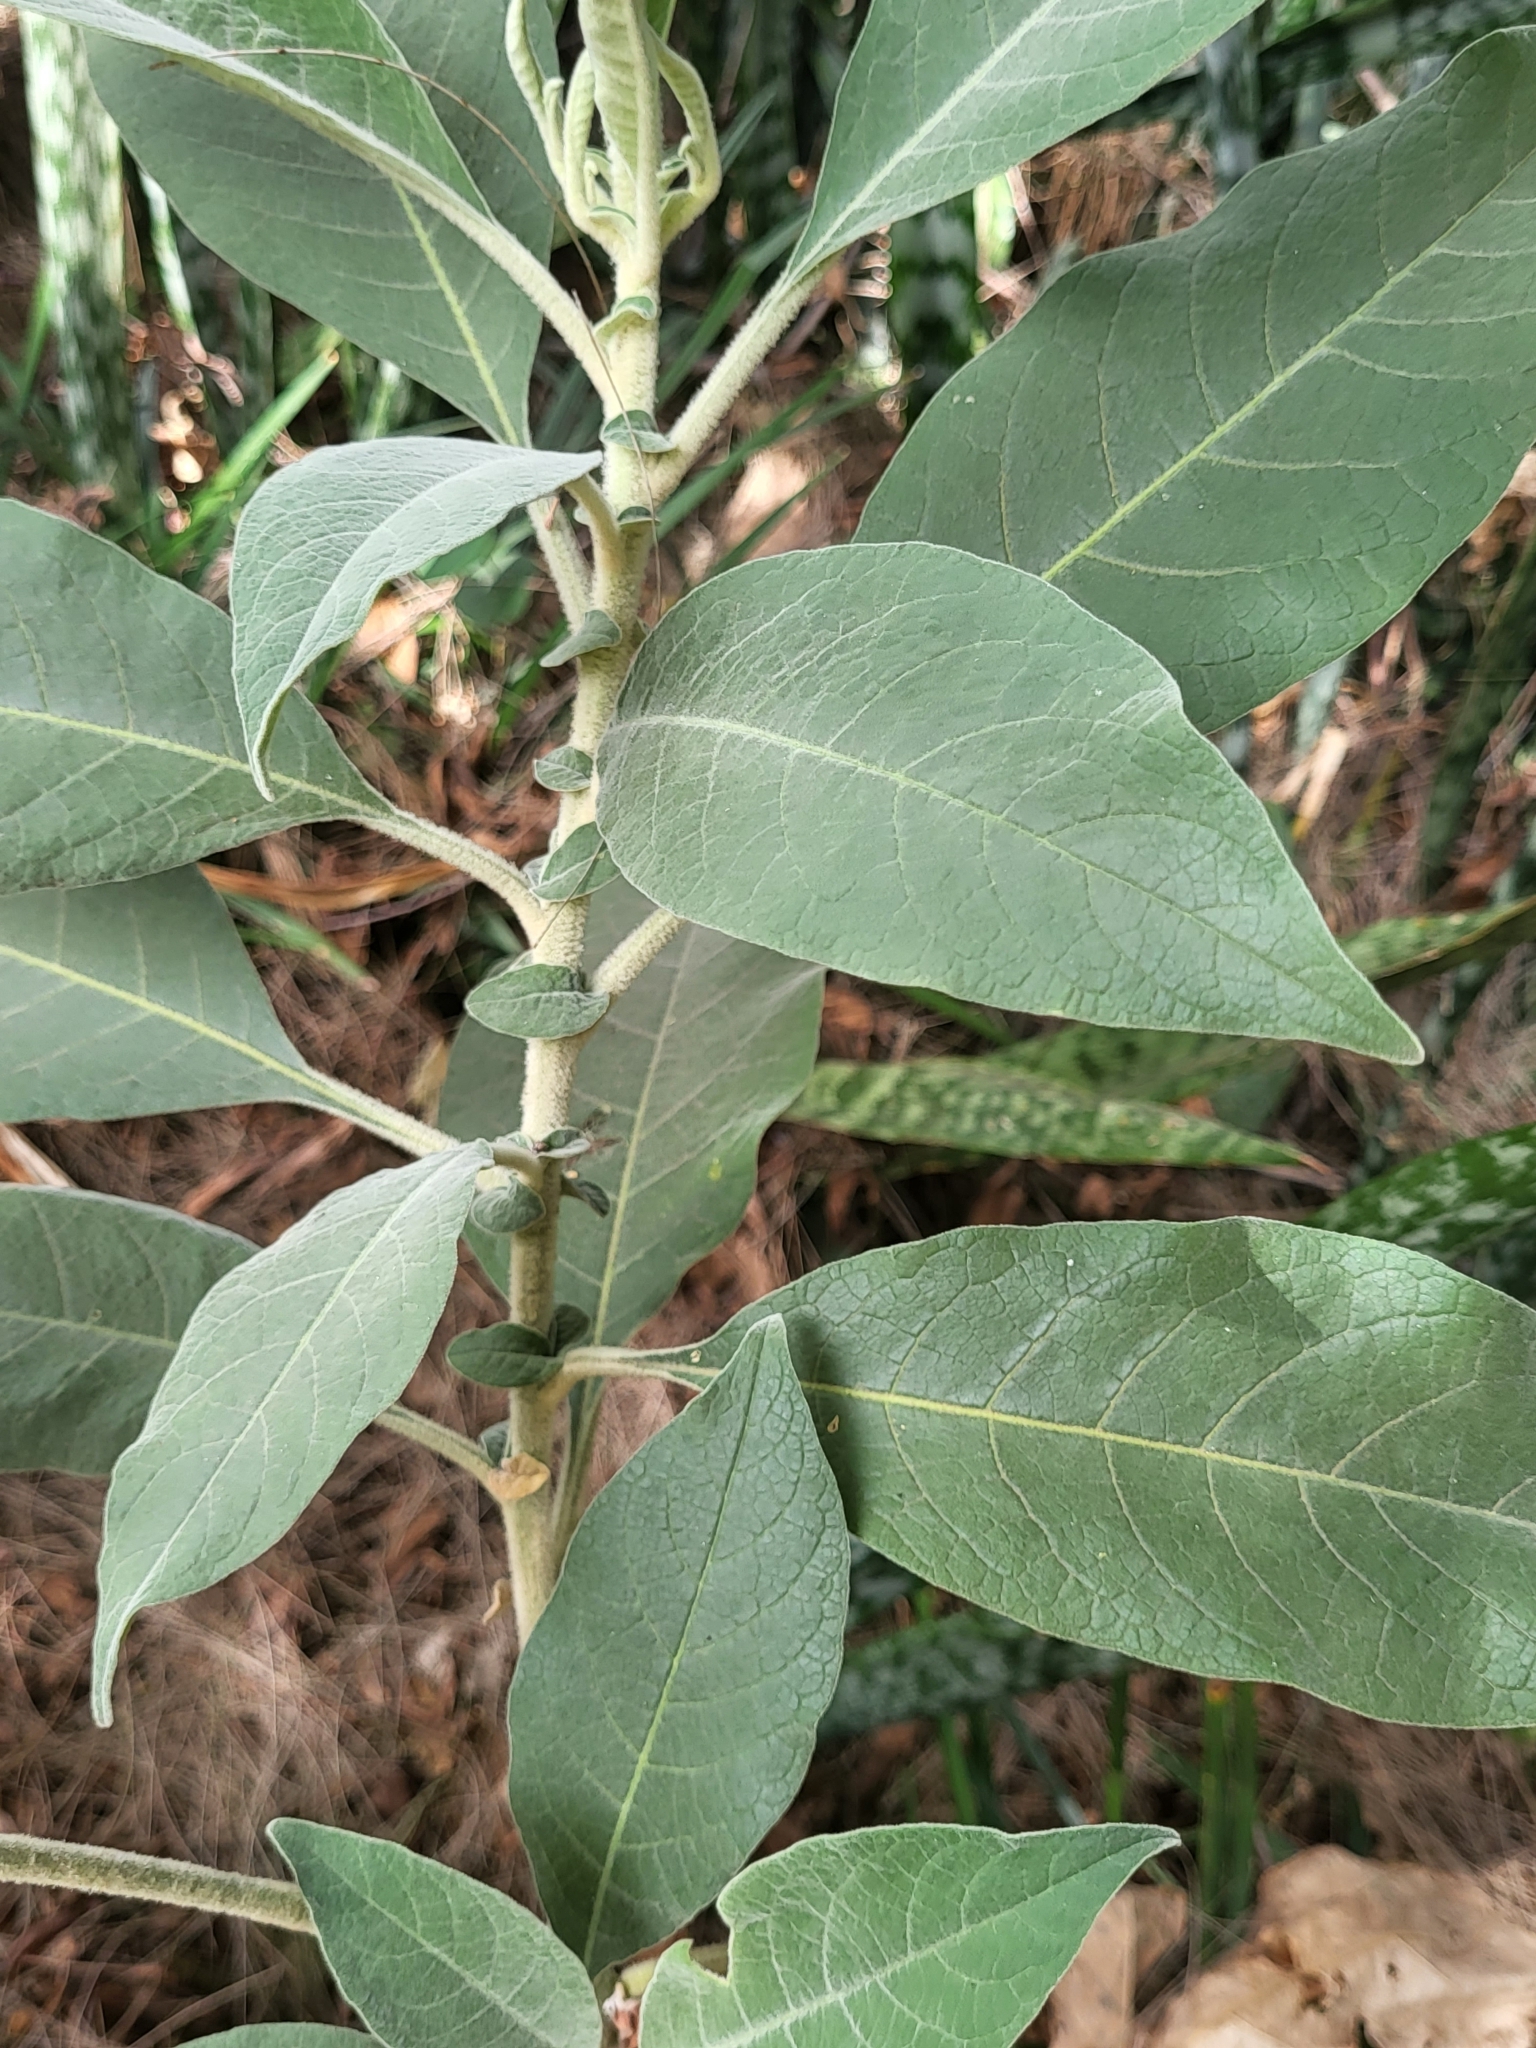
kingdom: Plantae
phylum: Tracheophyta
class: Magnoliopsida
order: Solanales
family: Solanaceae
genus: Solanum
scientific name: Solanum mauritianum
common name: Earleaf nightshade
